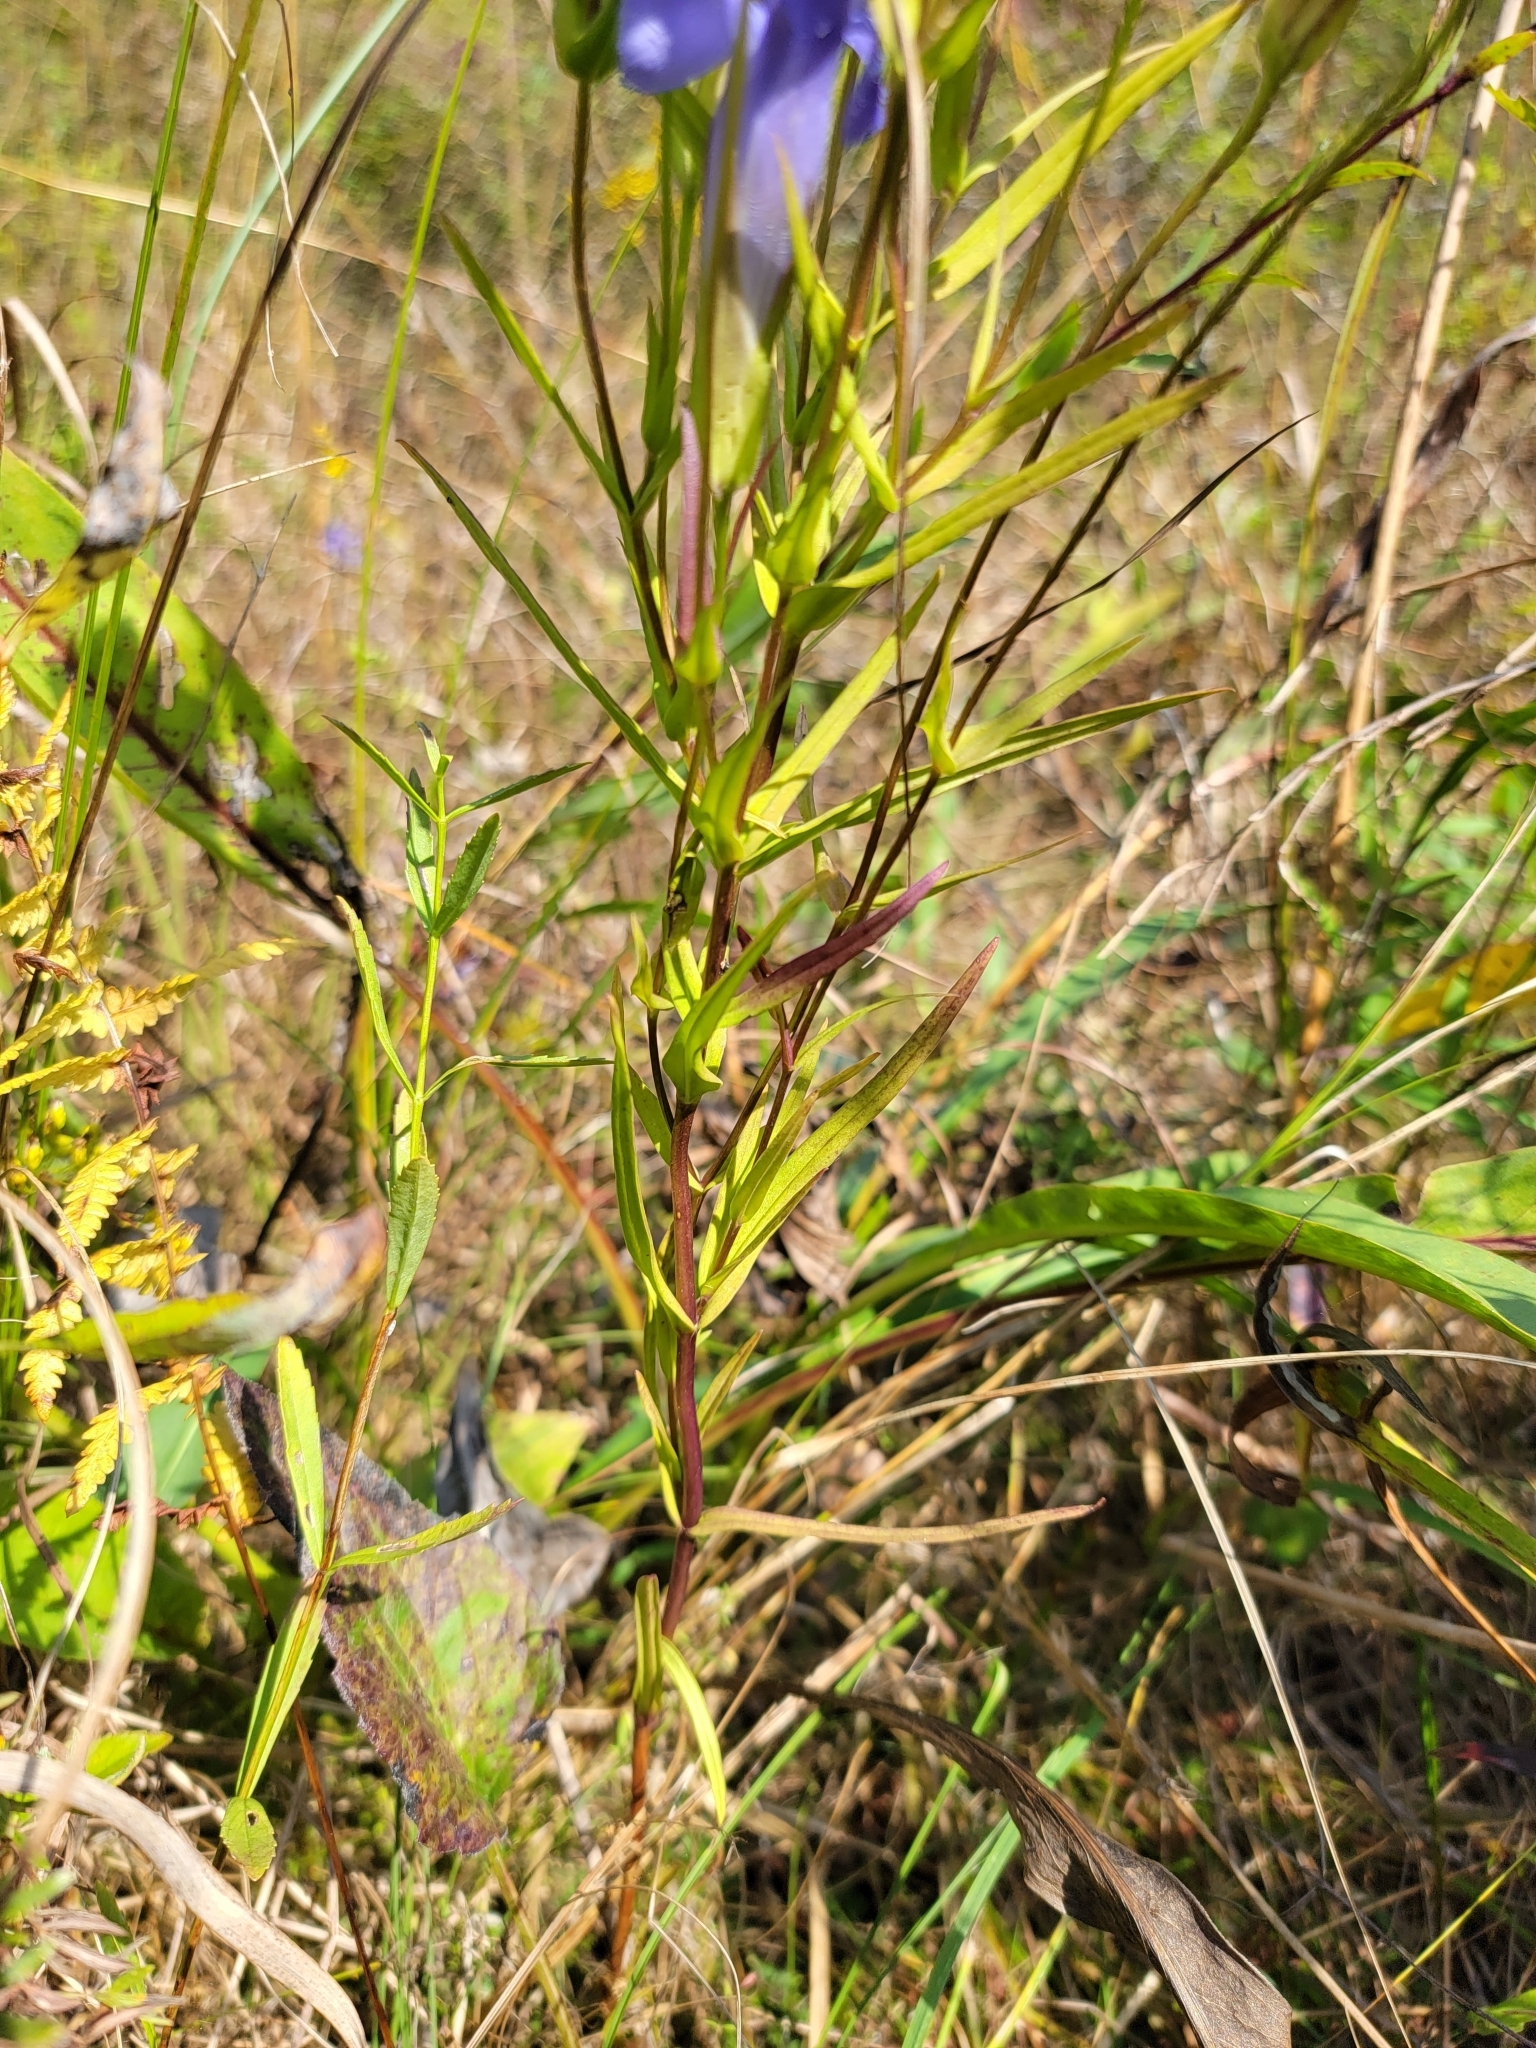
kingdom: Plantae
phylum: Tracheophyta
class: Magnoliopsida
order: Gentianales
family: Gentianaceae
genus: Gentianopsis
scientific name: Gentianopsis virgata
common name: Lesser fringed-gentian
